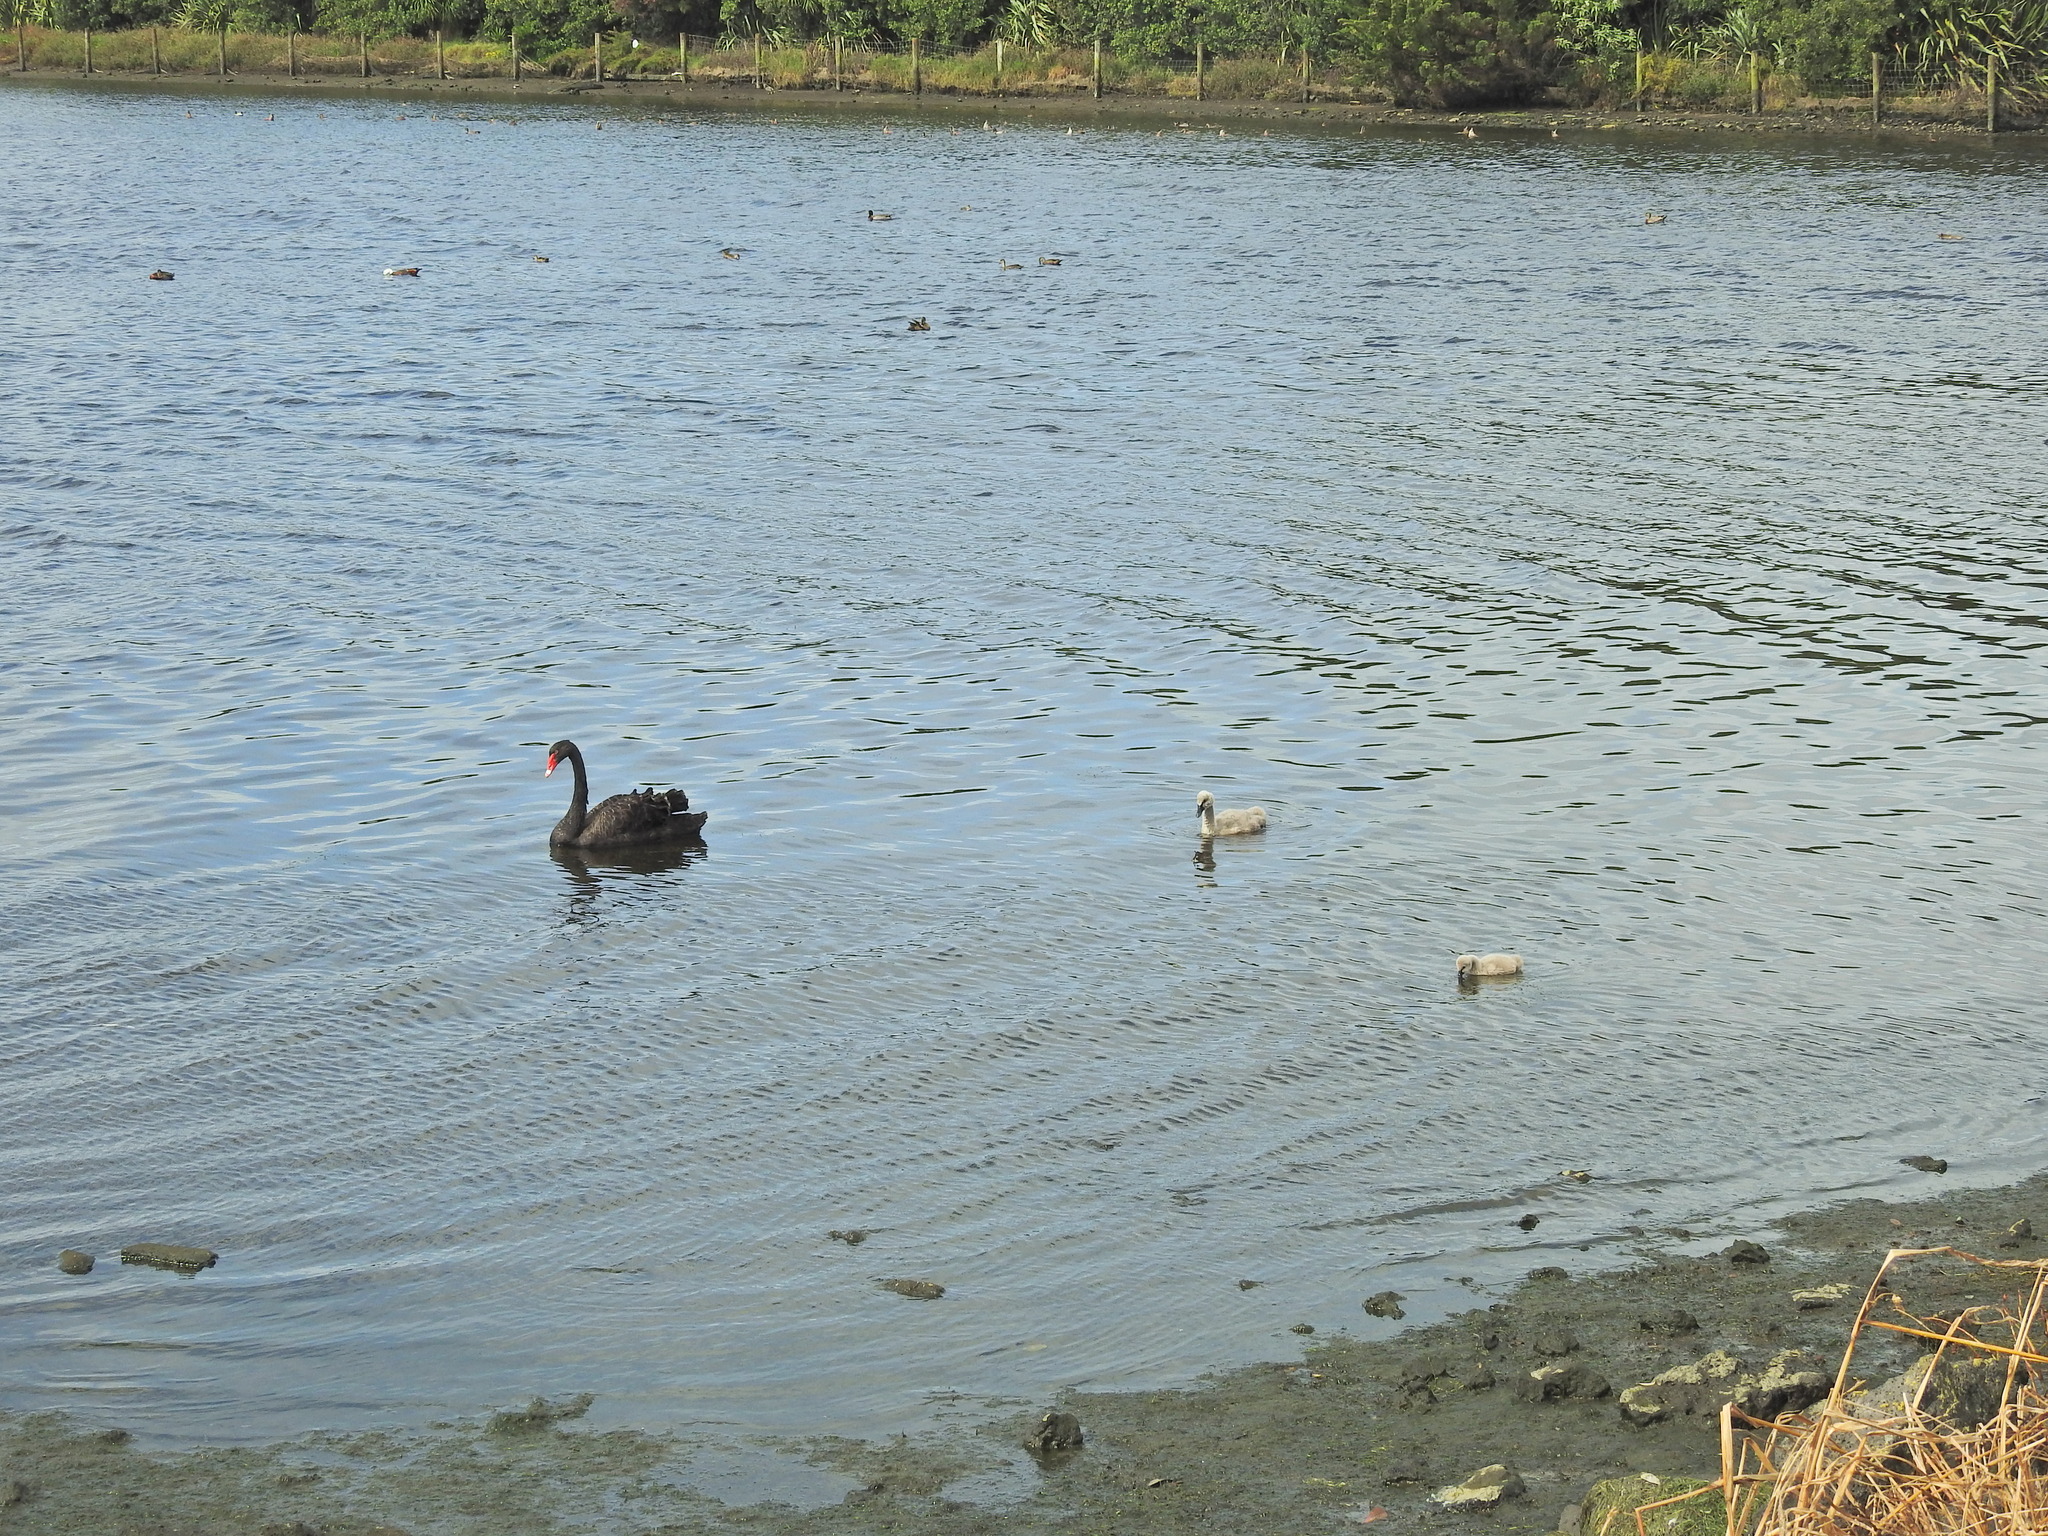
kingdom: Animalia
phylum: Chordata
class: Aves
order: Anseriformes
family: Anatidae
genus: Cygnus
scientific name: Cygnus atratus
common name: Black swan
